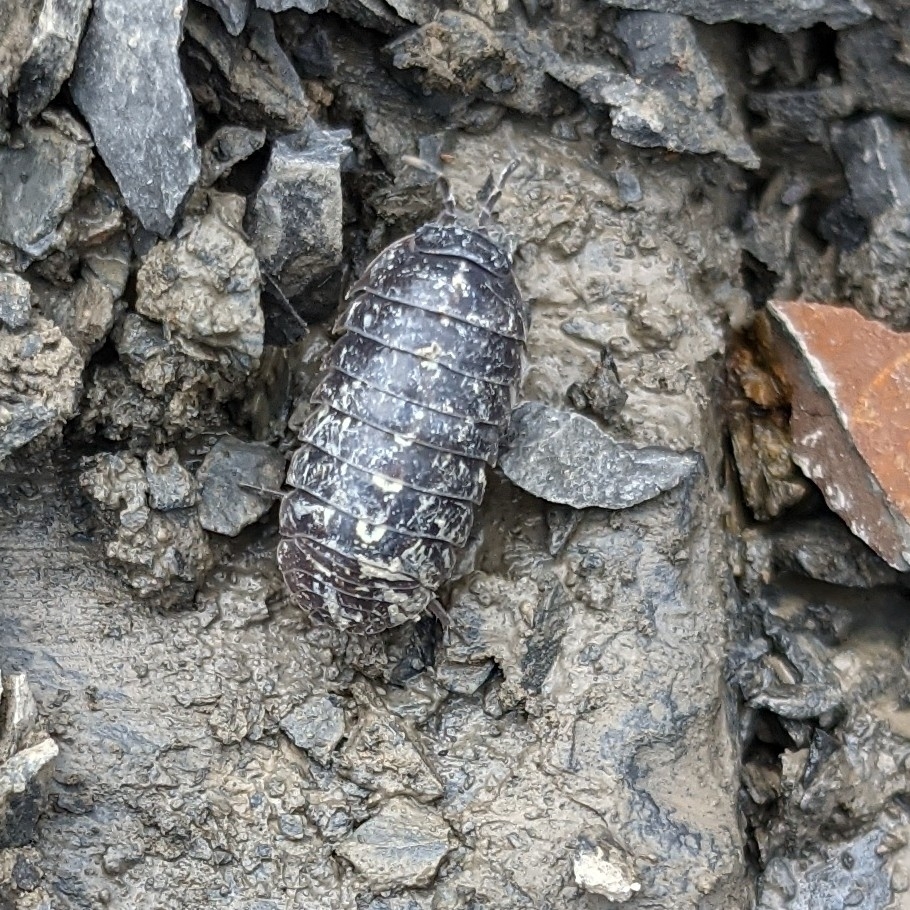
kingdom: Animalia
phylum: Arthropoda
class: Malacostraca
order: Isopoda
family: Armadillidiidae
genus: Armadillidium
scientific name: Armadillidium vulgare
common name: Common pill woodlouse
